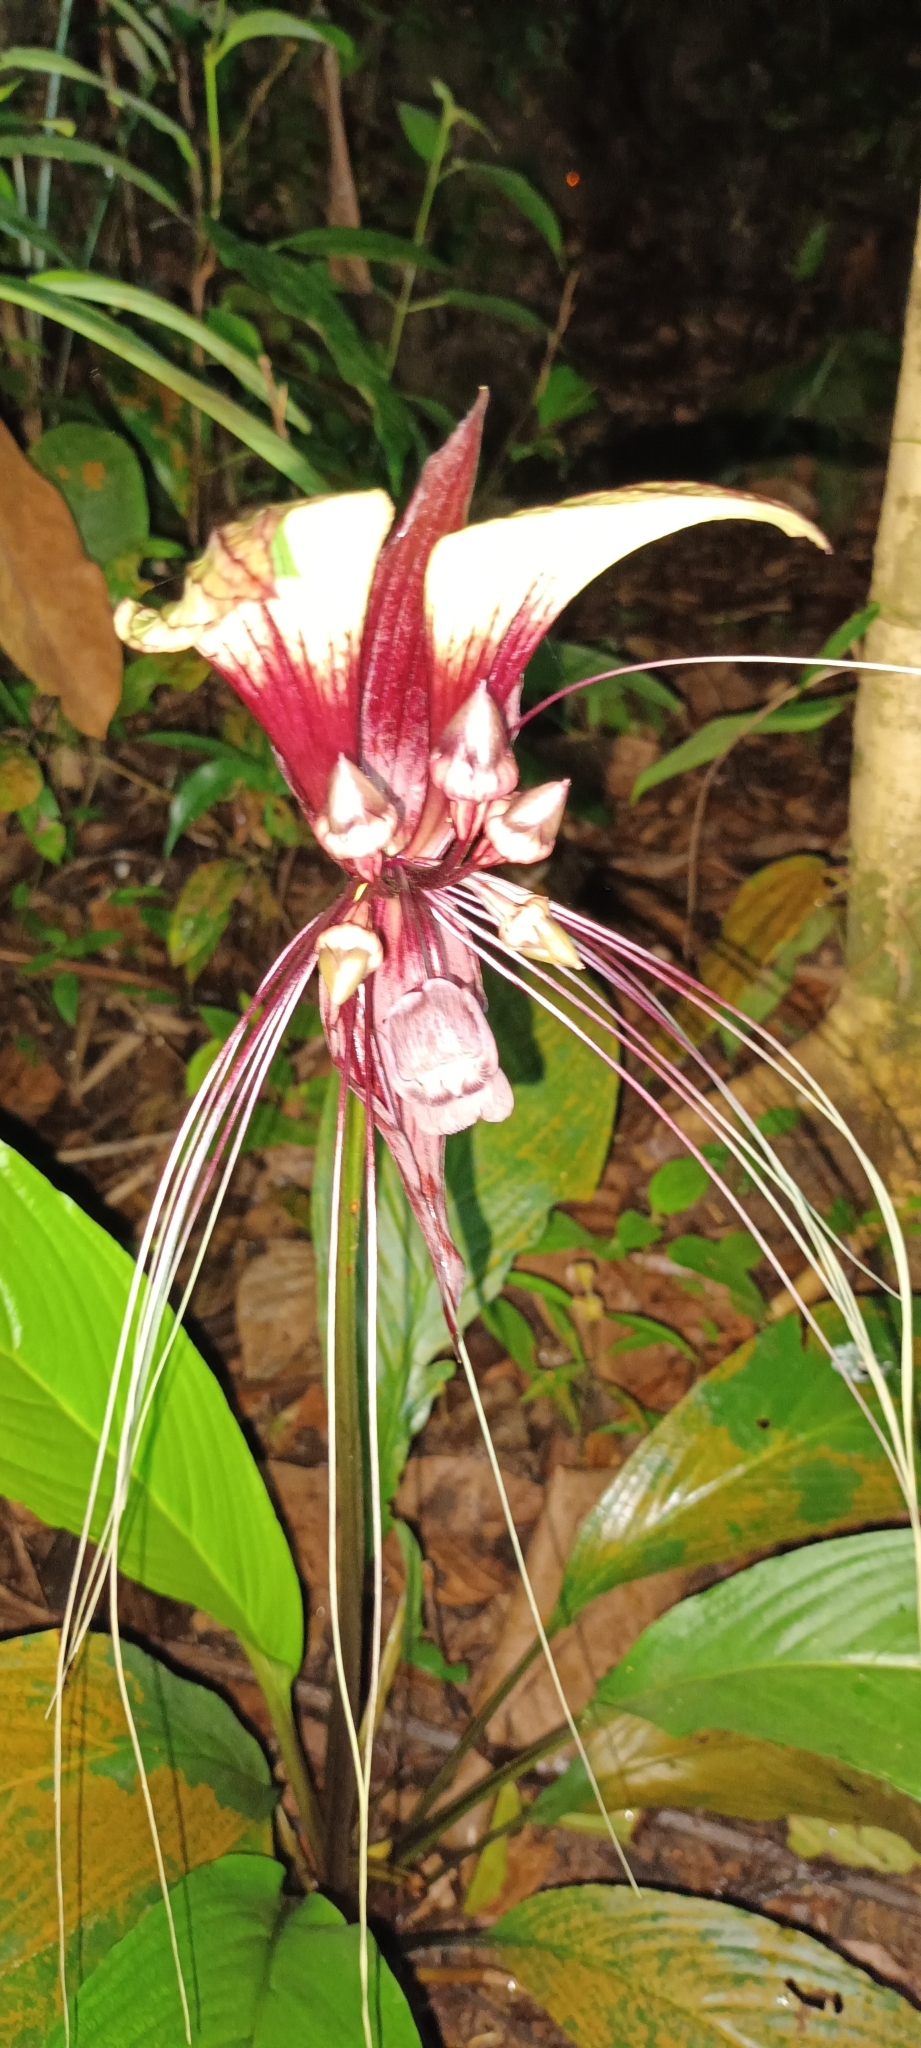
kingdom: Plantae
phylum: Tracheophyta
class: Liliopsida
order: Dioscoreales
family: Dioscoreaceae
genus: Tacca
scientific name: Tacca cristata
